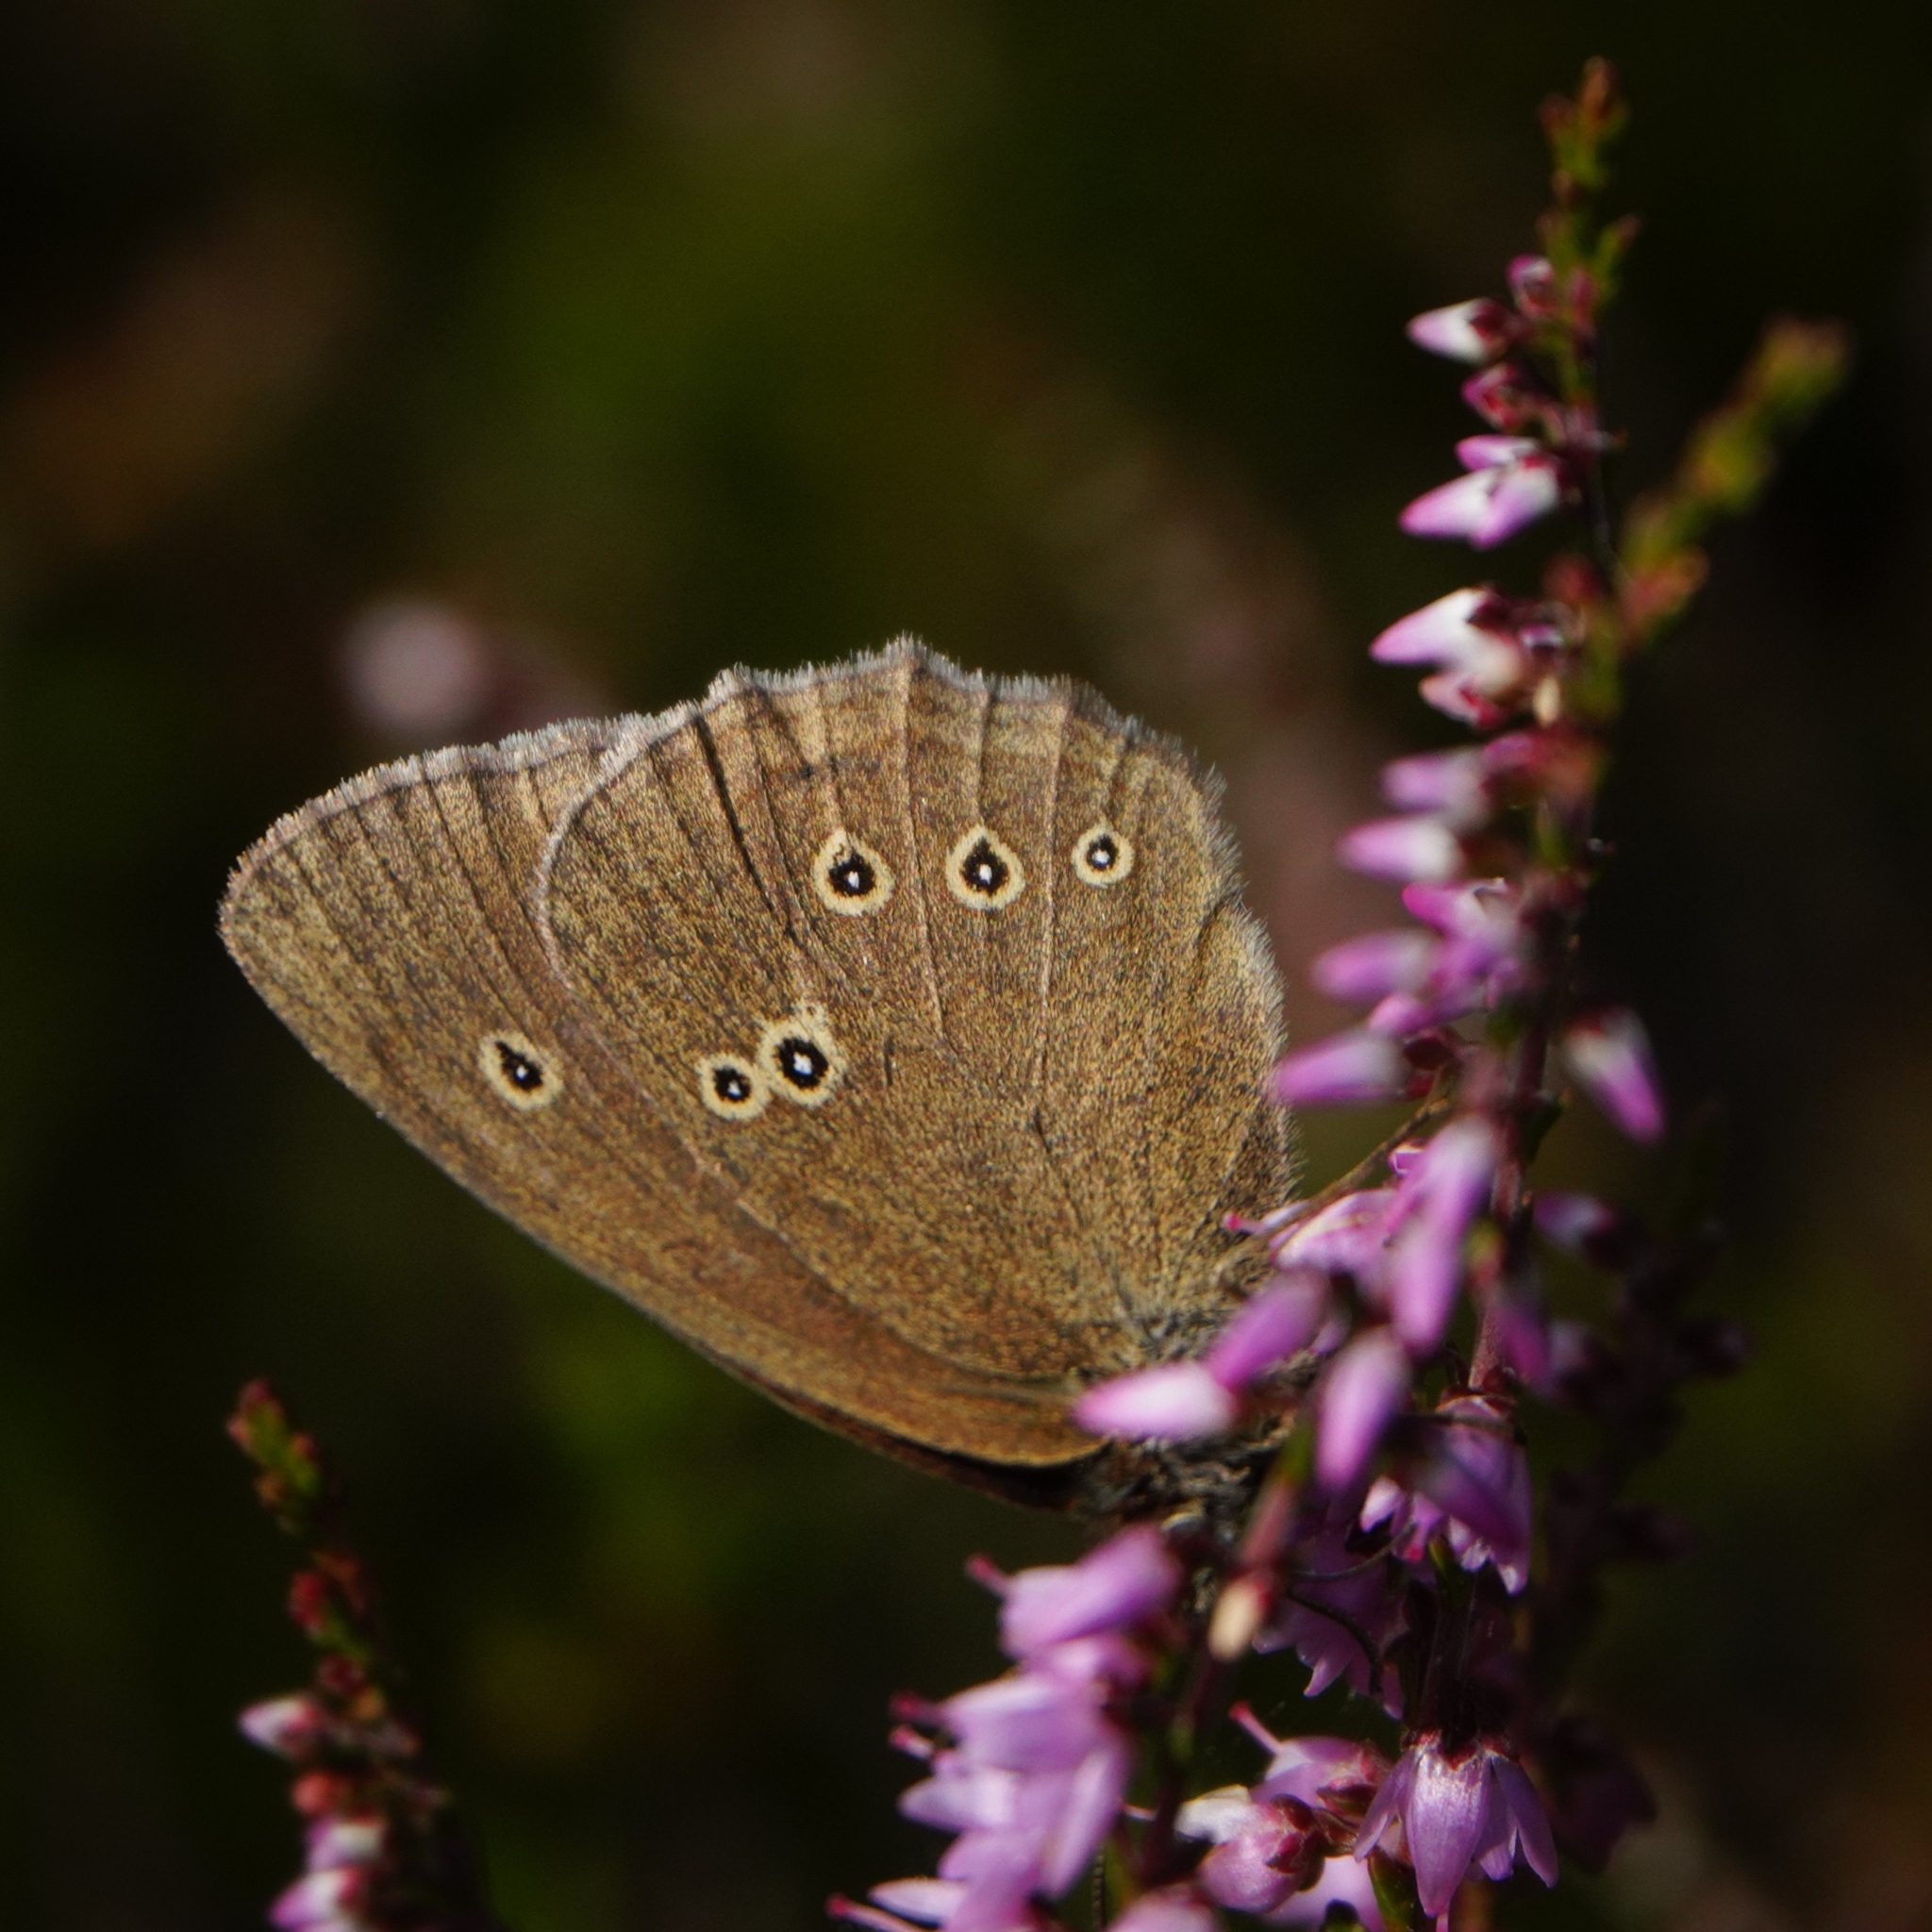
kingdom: Animalia
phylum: Arthropoda
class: Insecta
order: Lepidoptera
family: Nymphalidae
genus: Aphantopus
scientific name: Aphantopus hyperantus
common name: Ringlet
